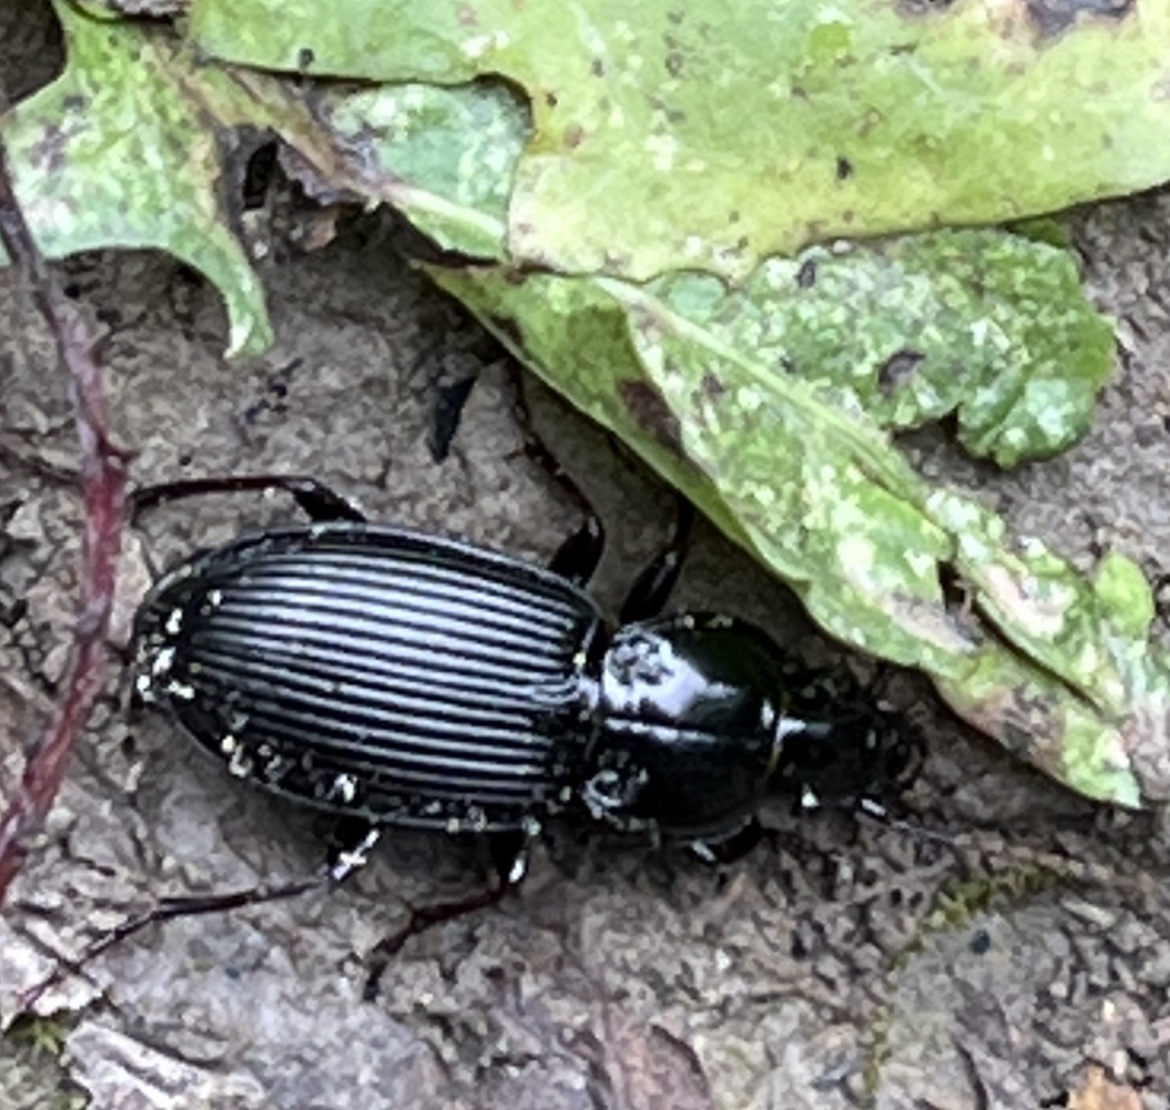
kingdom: Animalia
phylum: Arthropoda
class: Insecta
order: Coleoptera
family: Carabidae
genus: Pterostichus
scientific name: Pterostichus melanarius
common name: European dark harp ground beetle
